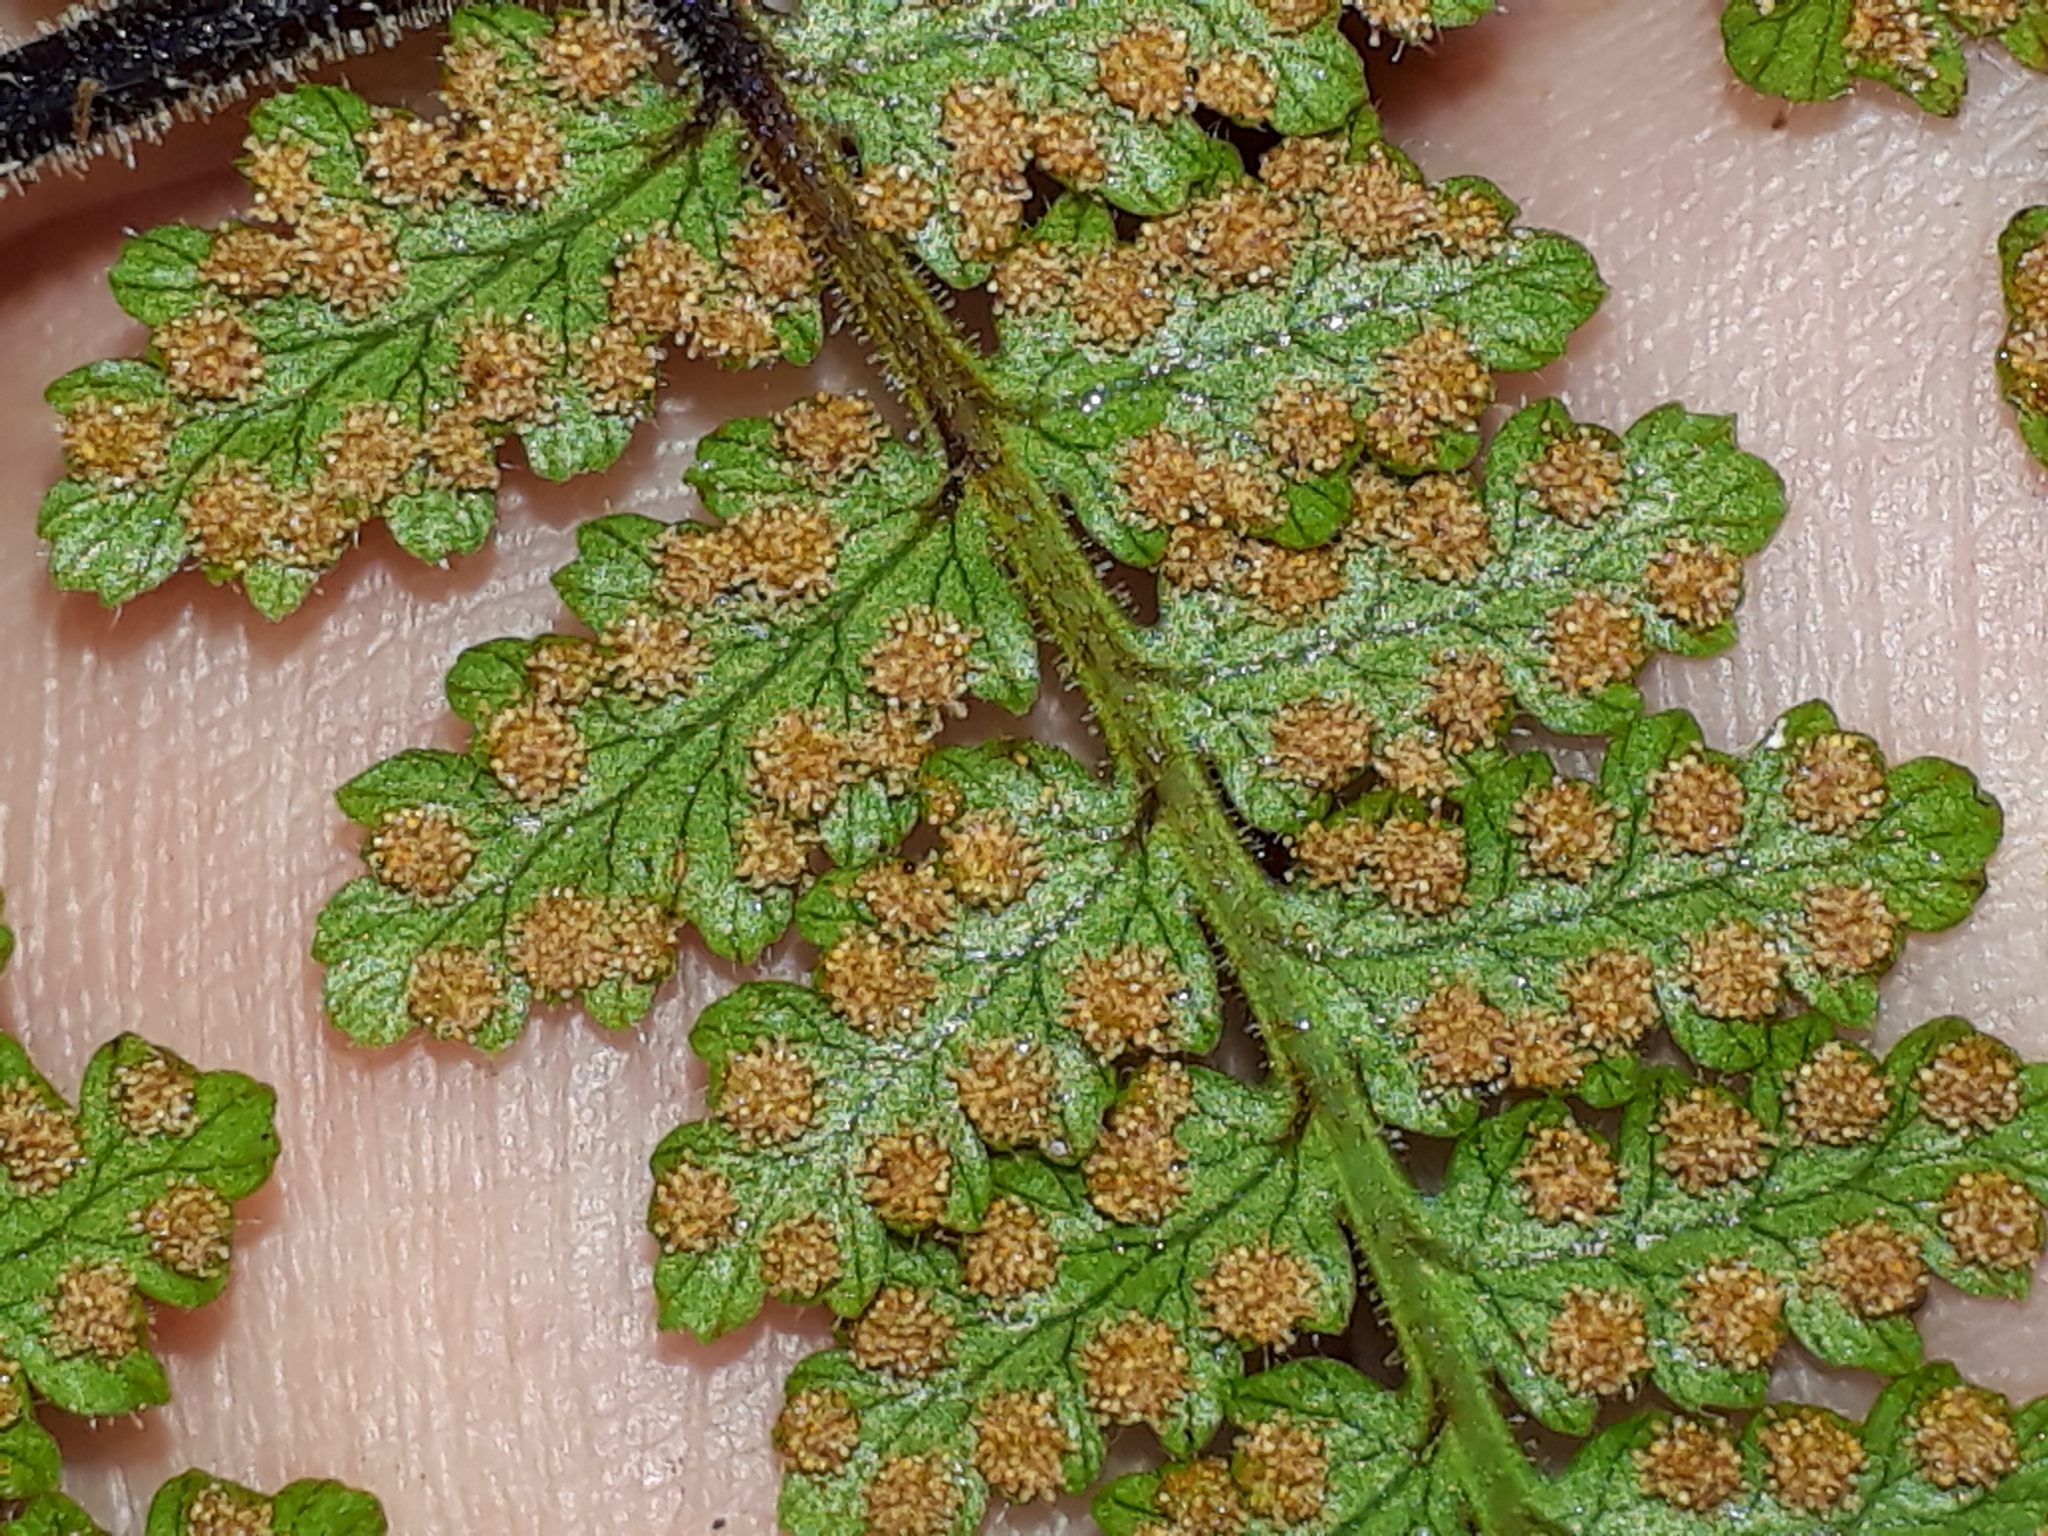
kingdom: Plantae
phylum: Tracheophyta
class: Polypodiopsida
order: Polypodiales
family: Dennstaedtiaceae
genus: Hypolepis
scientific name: Hypolepis rugosula
